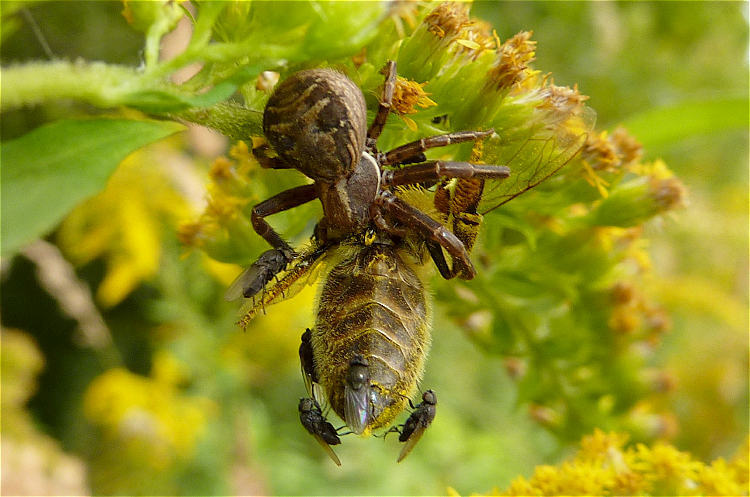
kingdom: Animalia
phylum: Arthropoda
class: Arachnida
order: Araneae
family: Thomisidae
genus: Xysticus
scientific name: Xysticus
